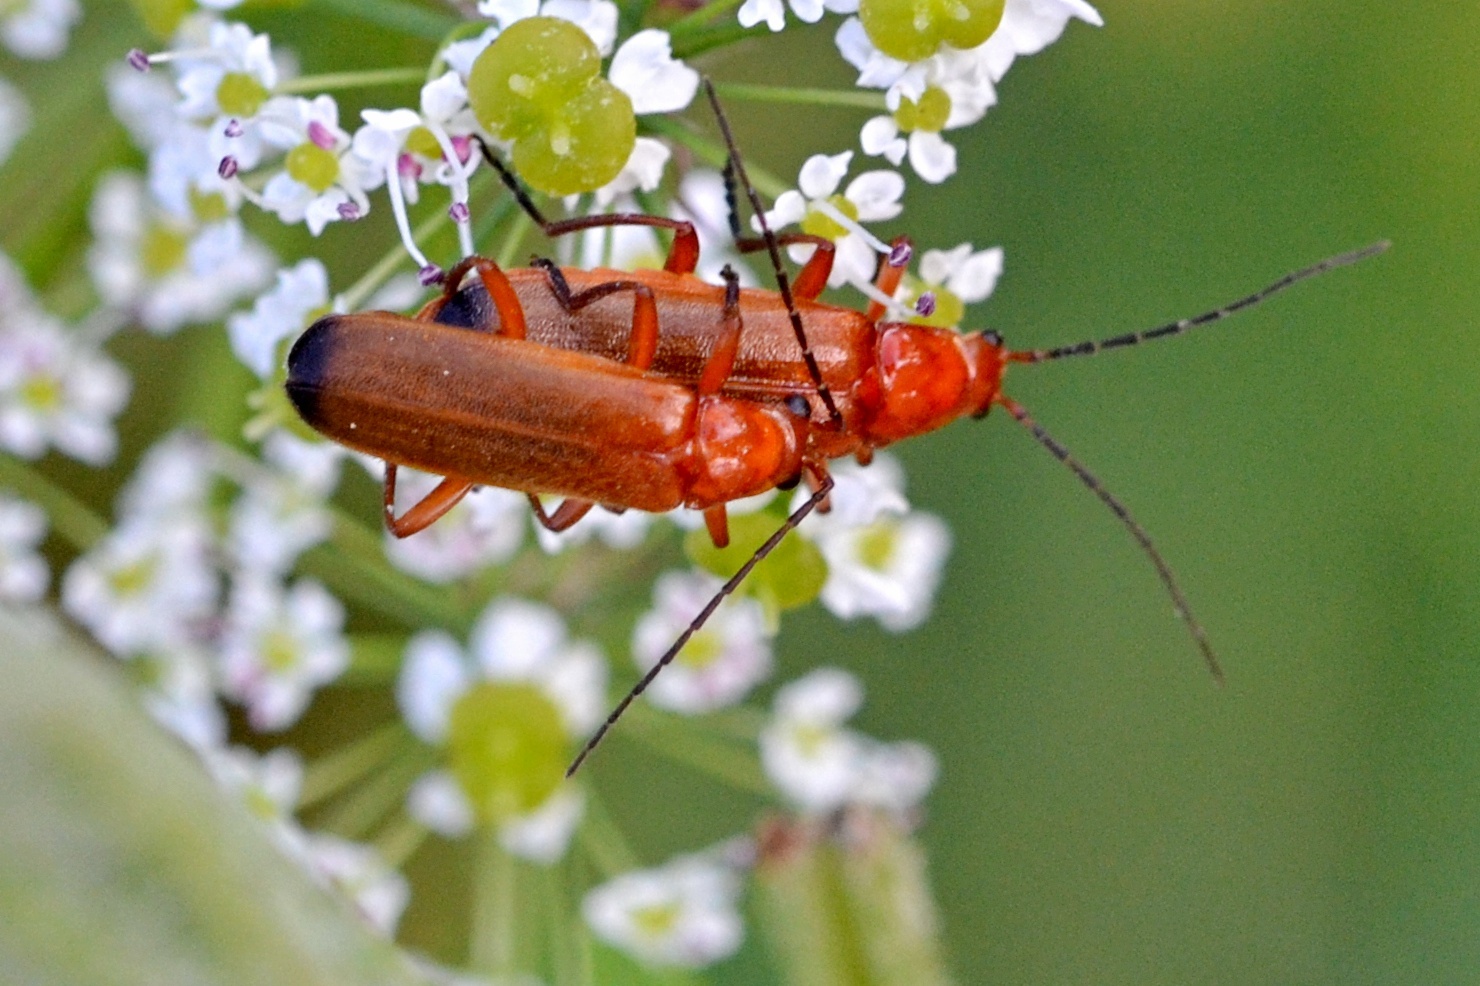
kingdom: Animalia
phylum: Arthropoda
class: Insecta
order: Coleoptera
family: Cantharidae
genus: Rhagonycha
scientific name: Rhagonycha fulva
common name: Common red soldier beetle
